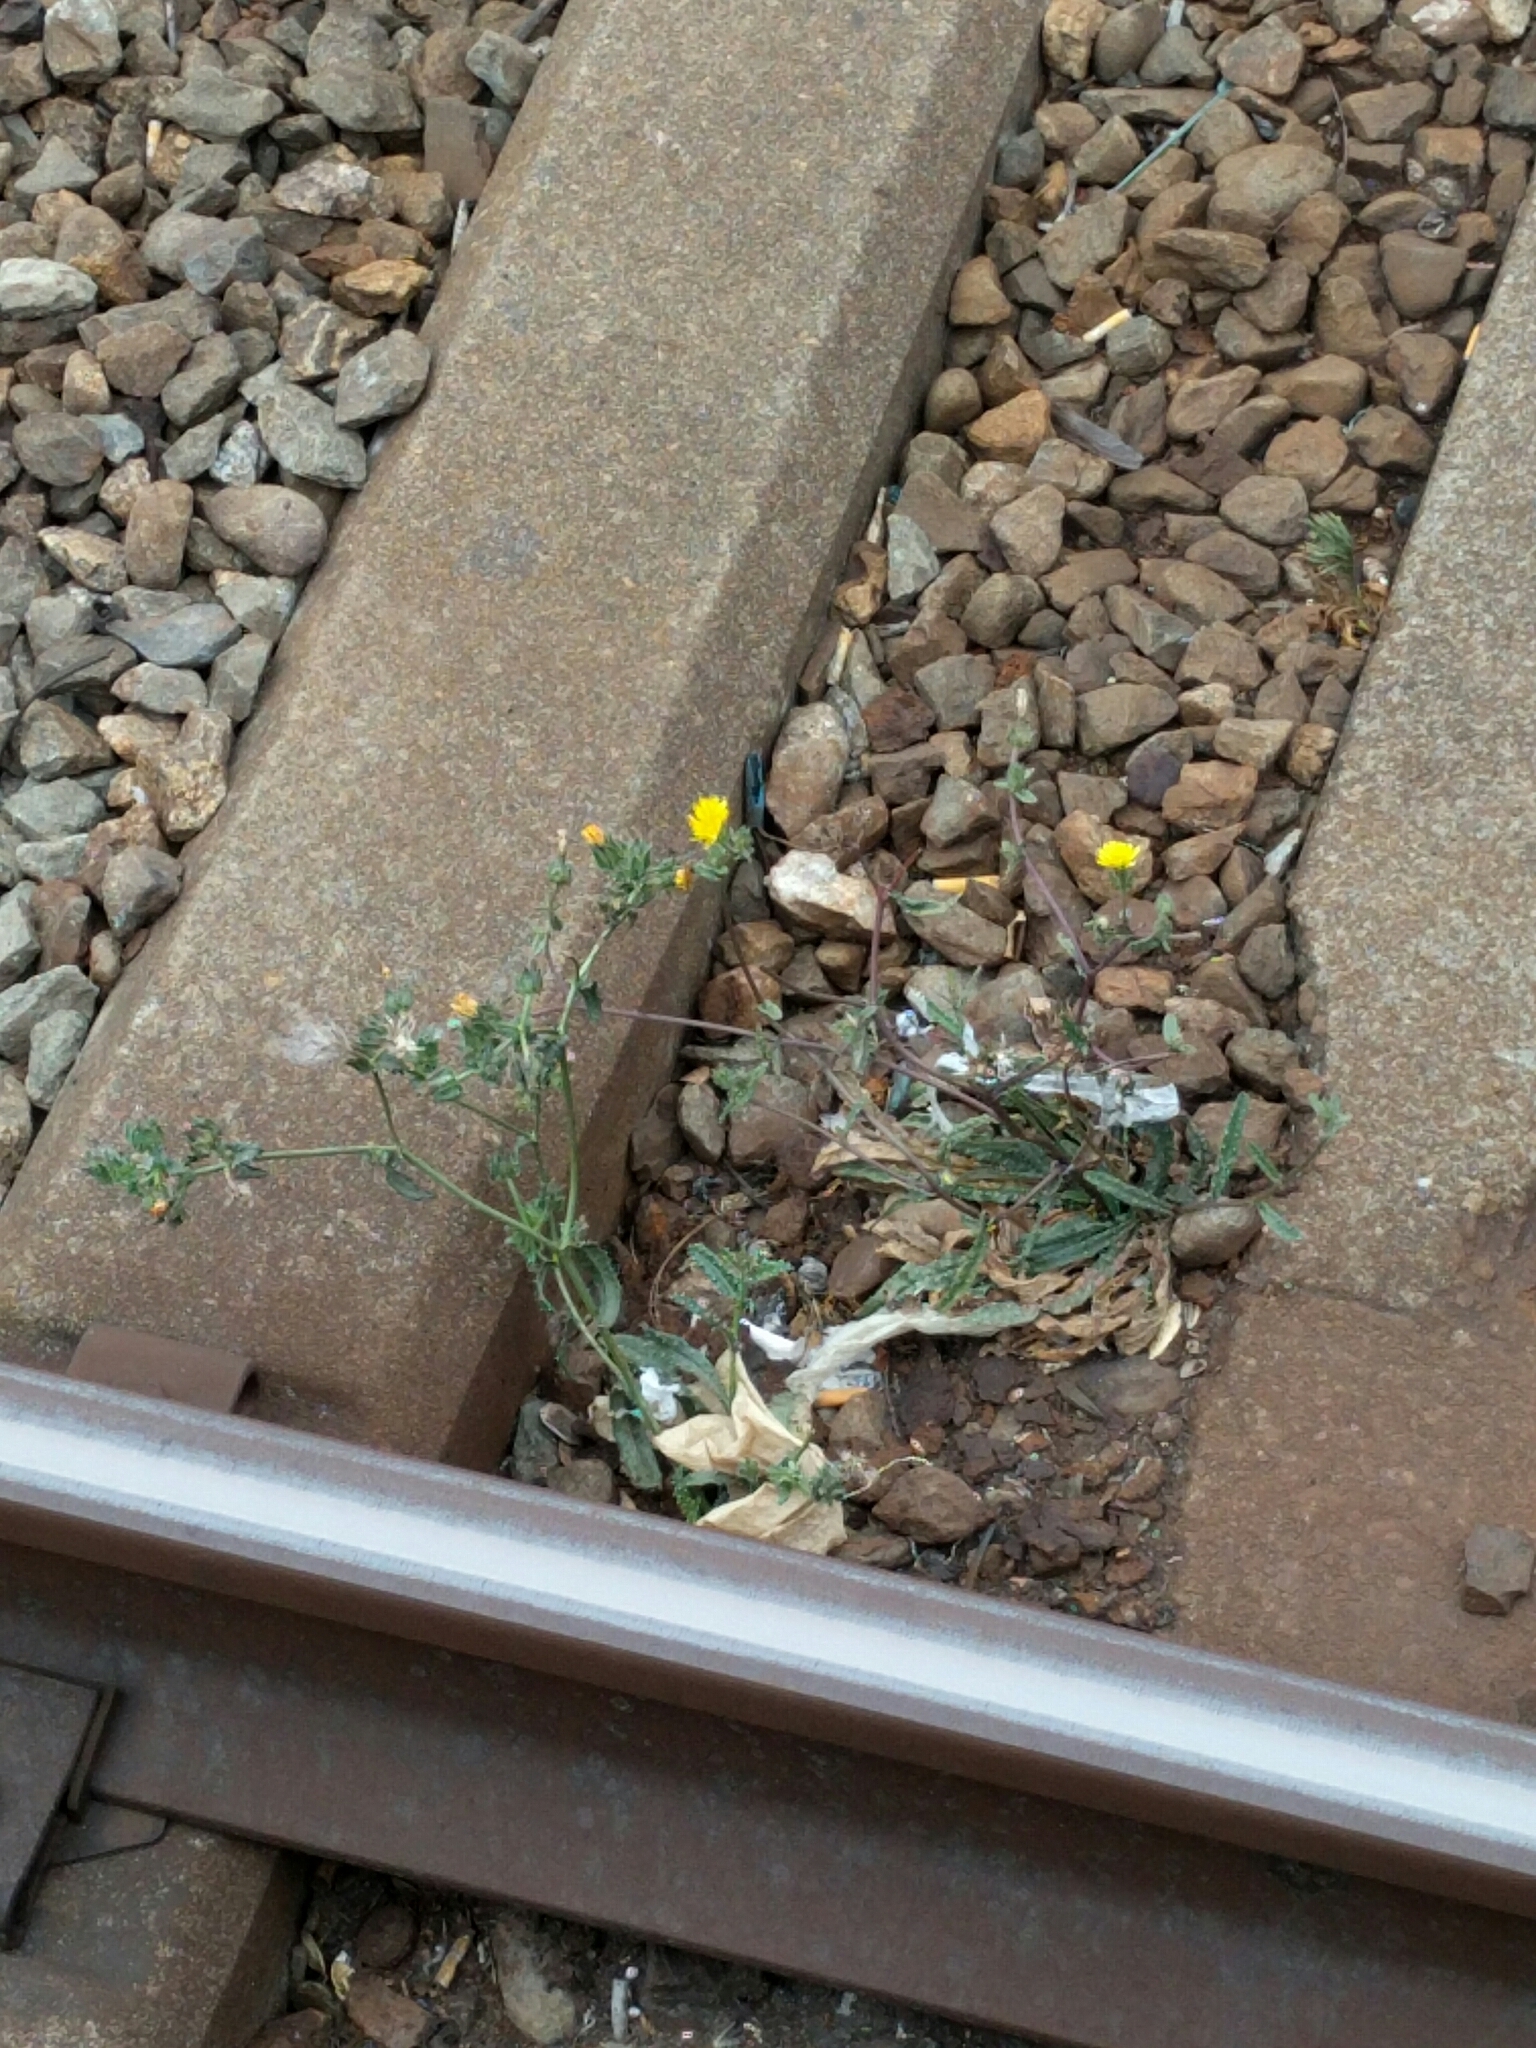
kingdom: Plantae
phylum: Tracheophyta
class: Magnoliopsida
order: Asterales
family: Asteraceae
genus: Helminthotheca
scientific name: Helminthotheca echioides
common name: Ox-tongue
